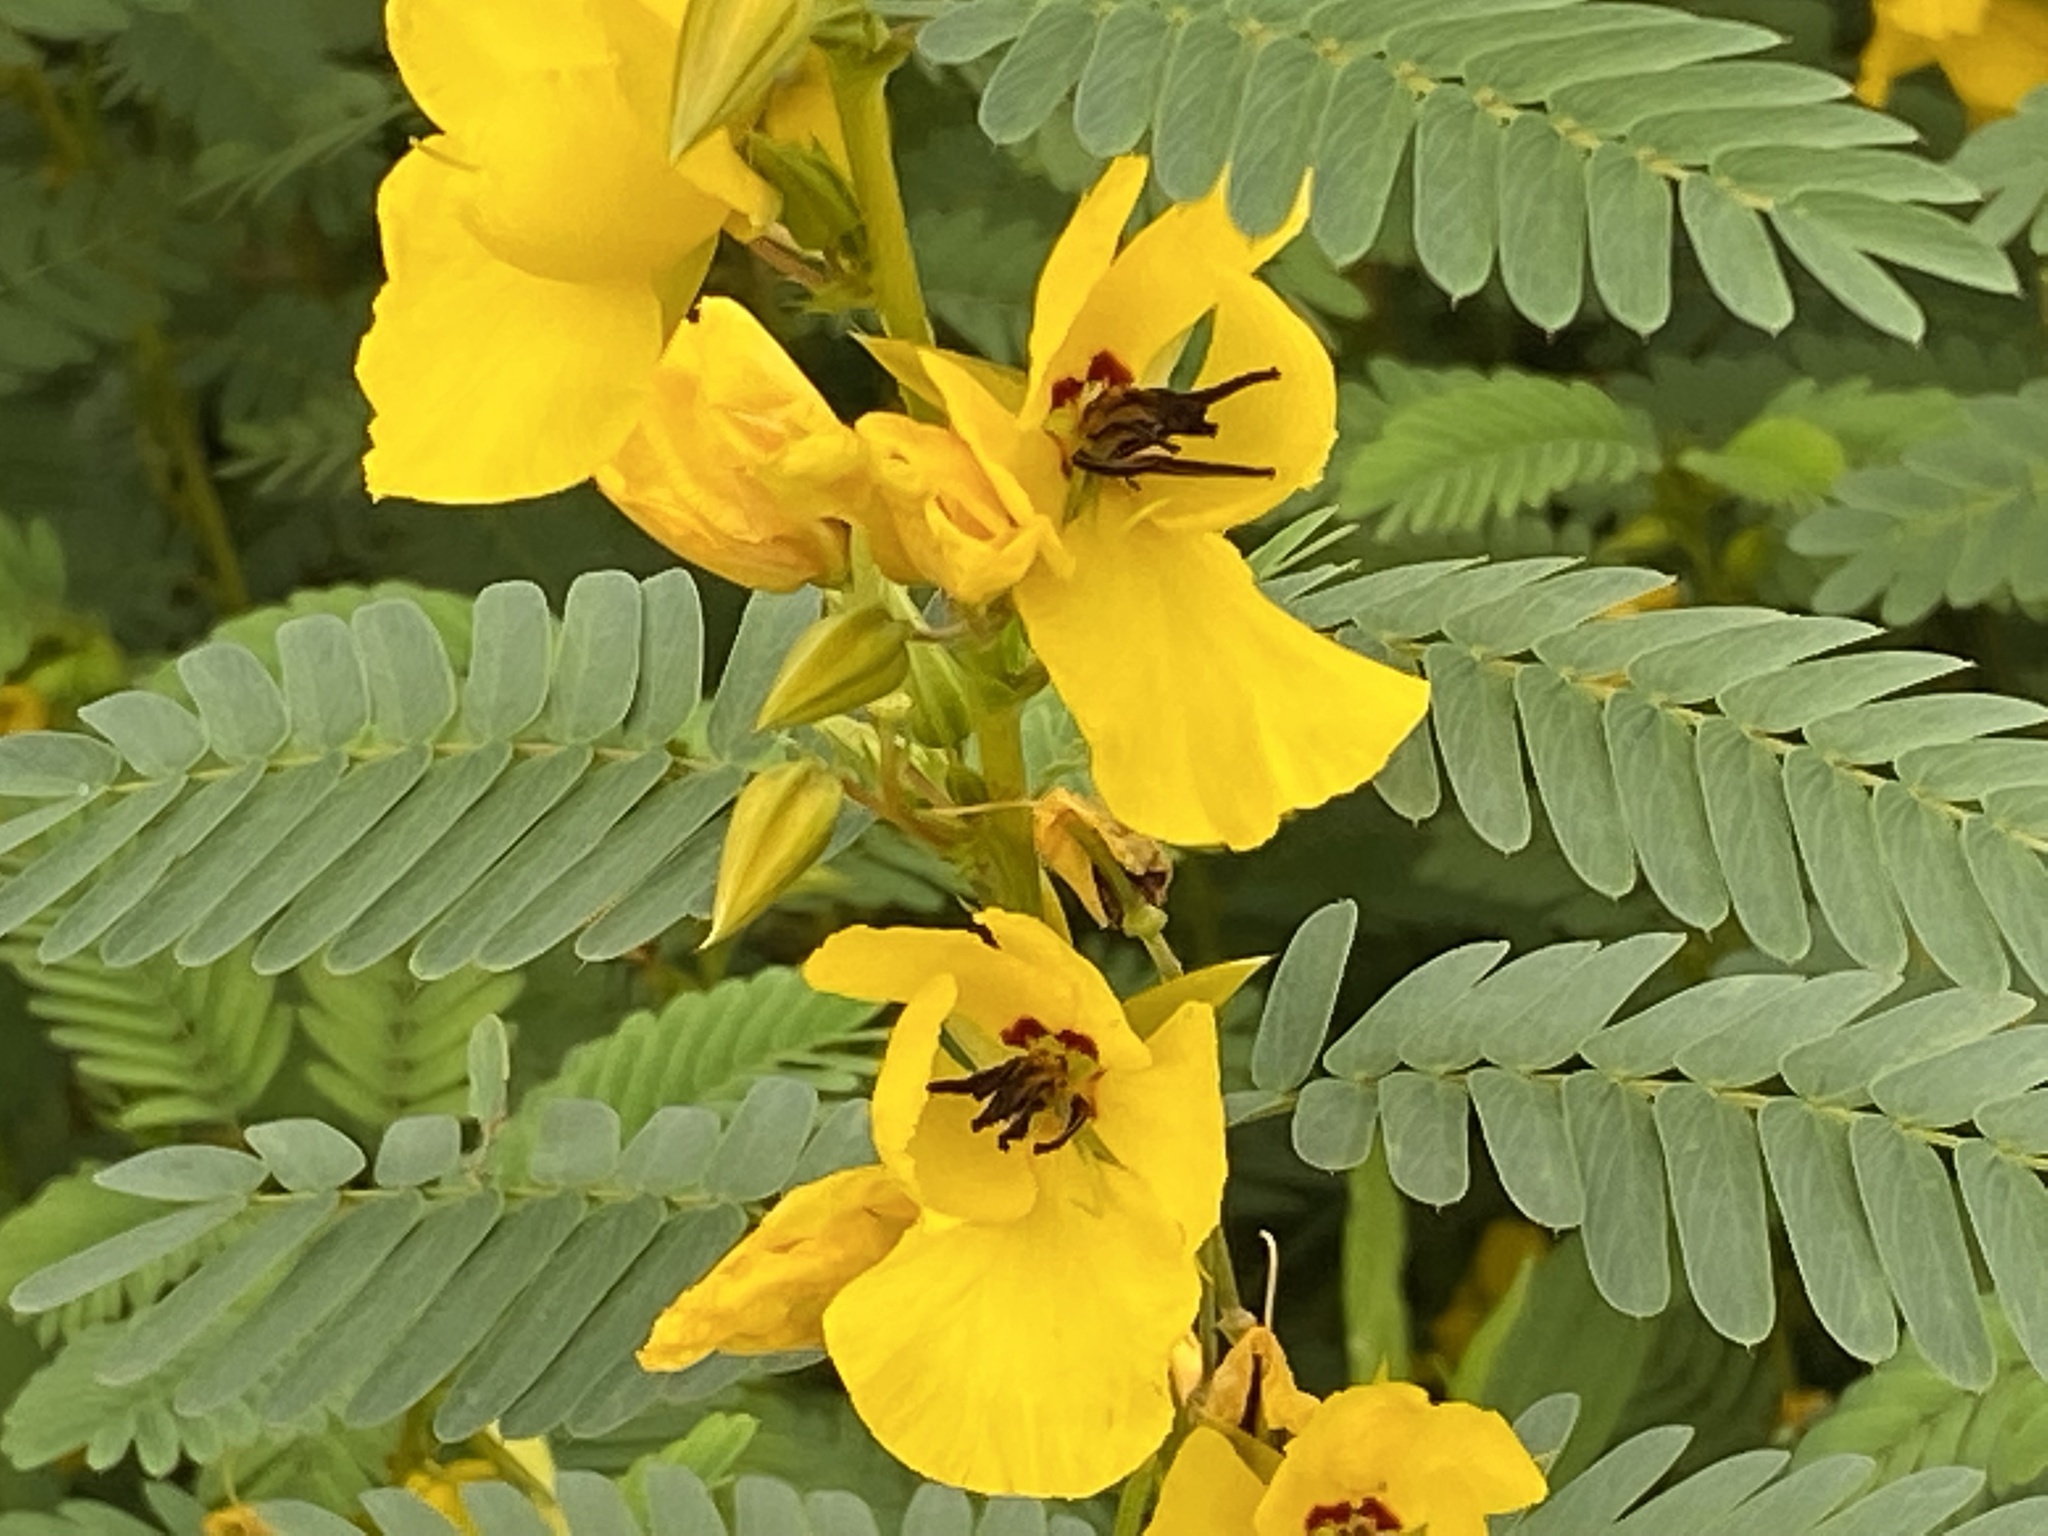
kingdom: Plantae
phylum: Tracheophyta
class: Magnoliopsida
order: Fabales
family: Fabaceae
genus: Chamaecrista
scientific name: Chamaecrista fasciculata
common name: Golden cassia
